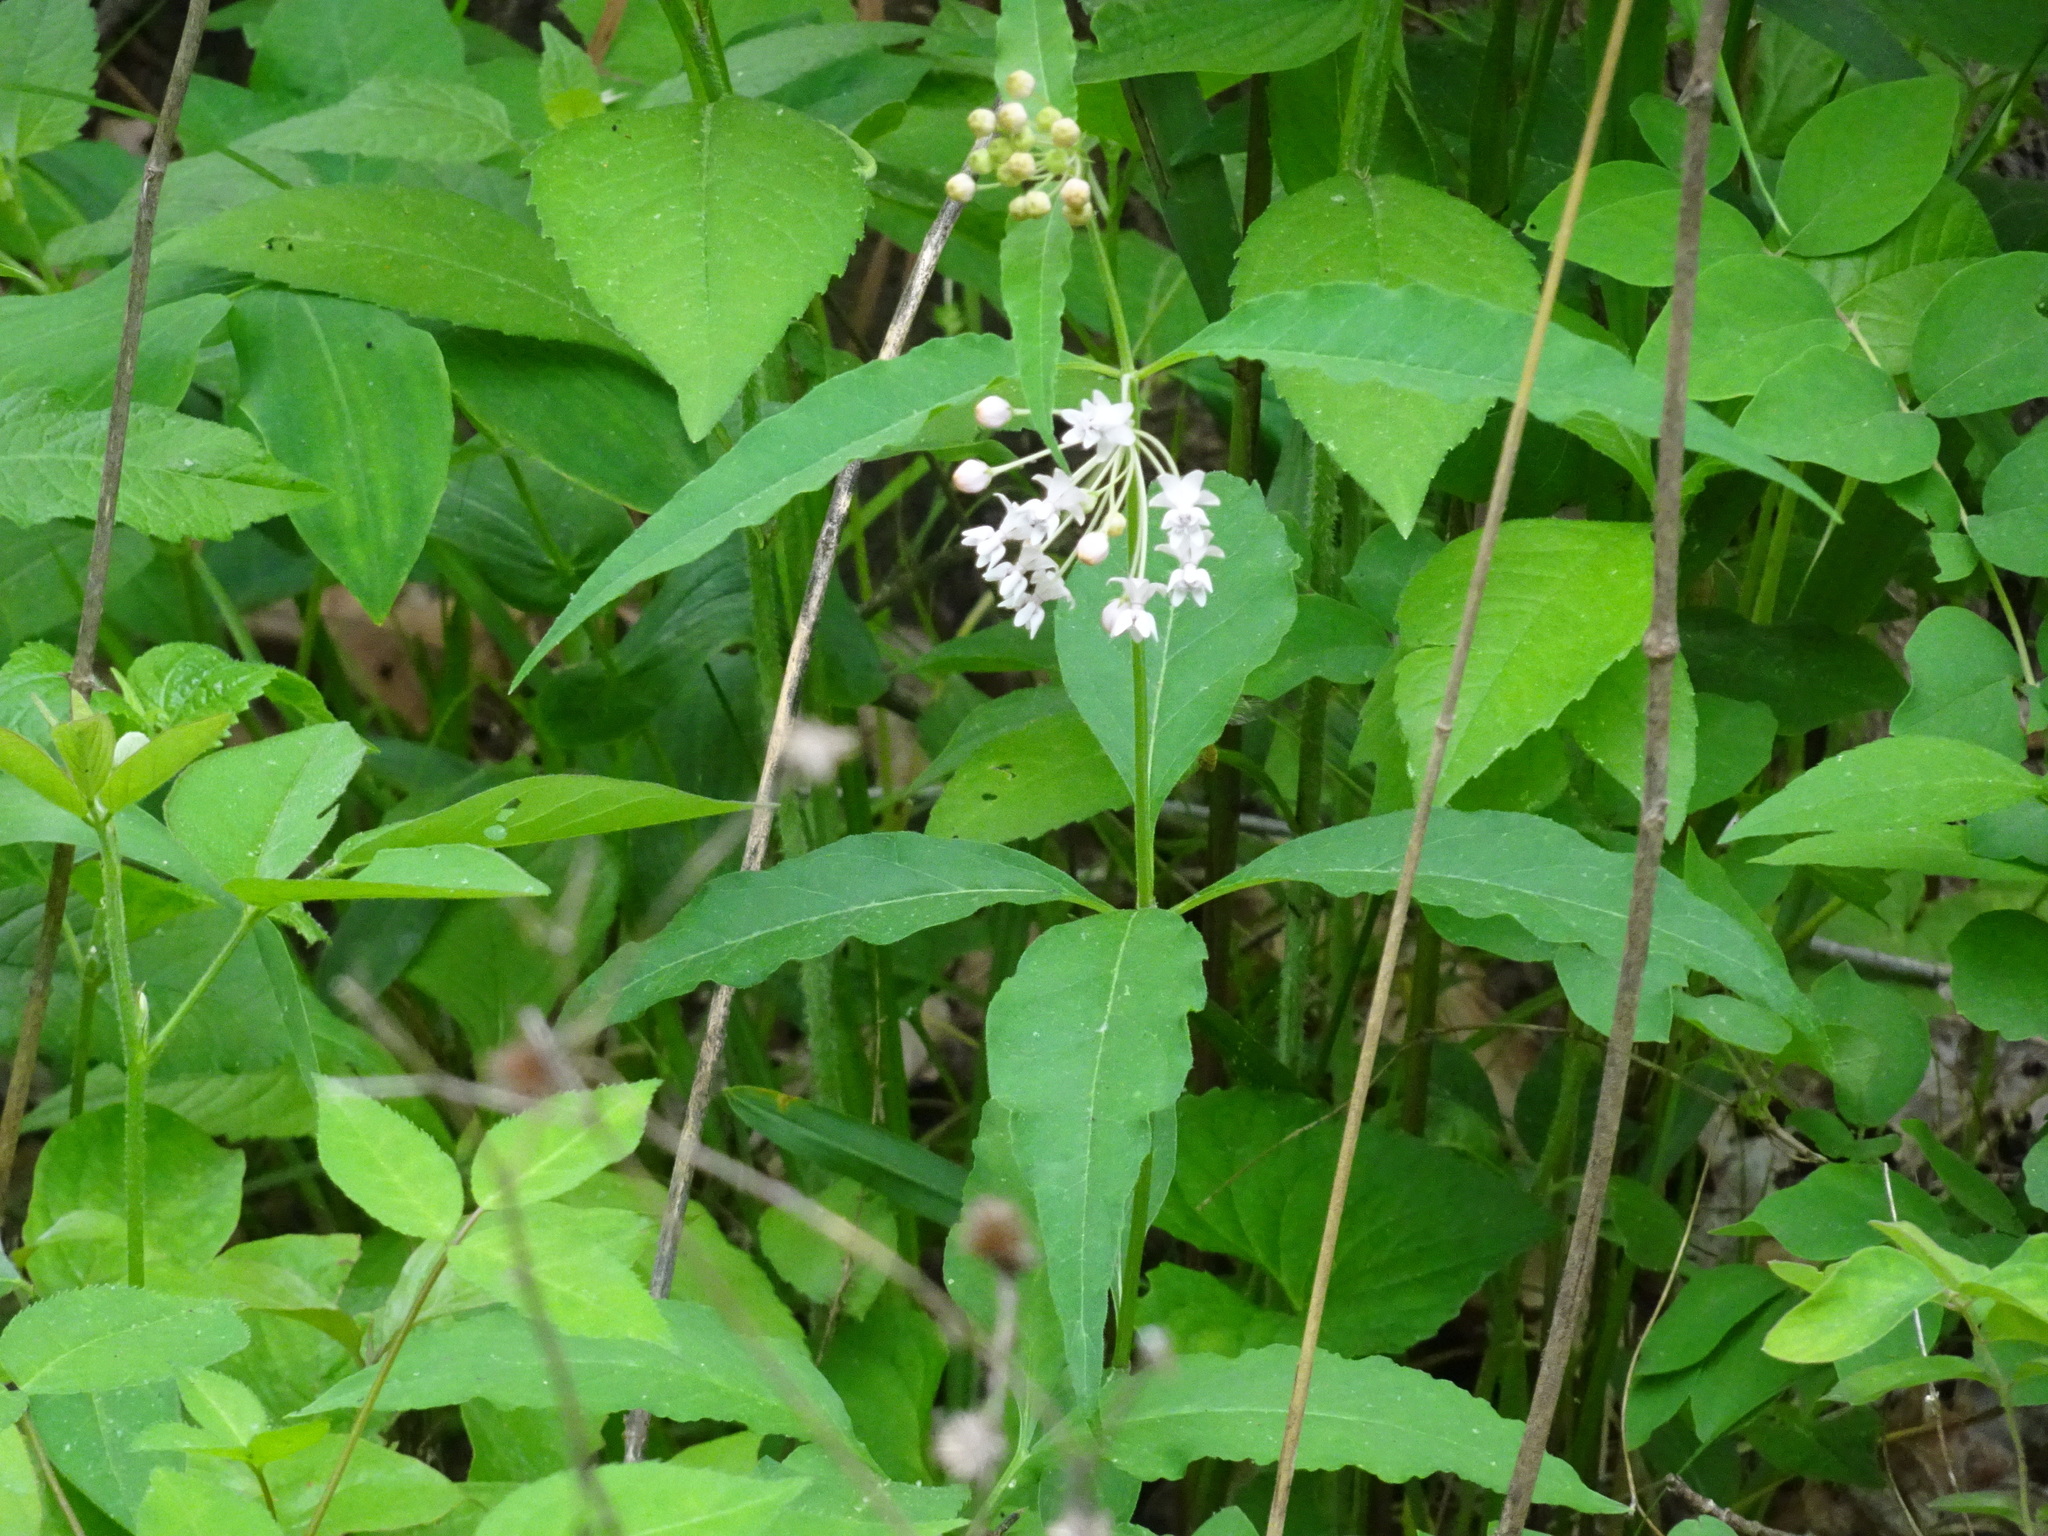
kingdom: Plantae
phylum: Tracheophyta
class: Magnoliopsida
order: Gentianales
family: Apocynaceae
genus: Asclepias
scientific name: Asclepias quadrifolia
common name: Whorled milkweed
